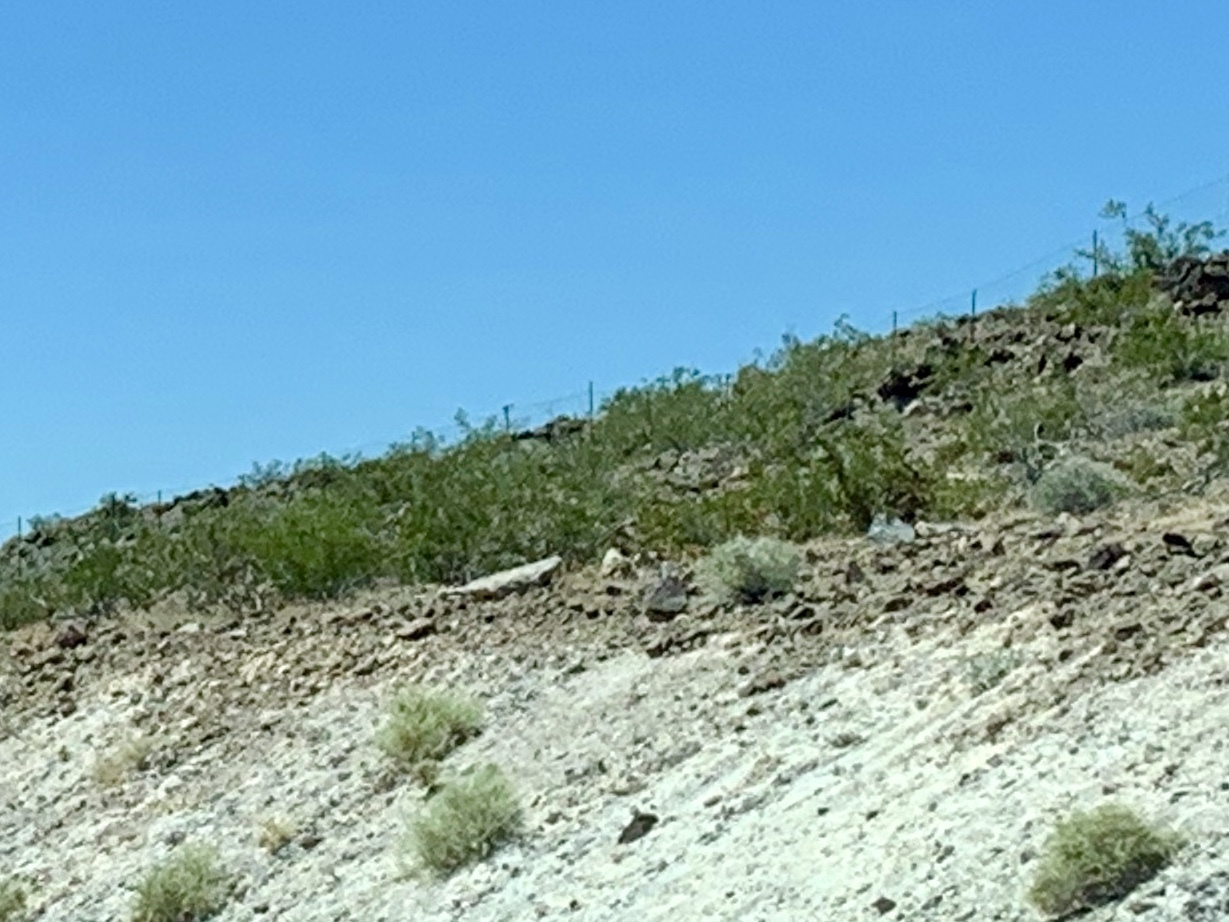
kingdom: Plantae
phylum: Tracheophyta
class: Magnoliopsida
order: Zygophyllales
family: Zygophyllaceae
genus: Larrea
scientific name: Larrea tridentata
